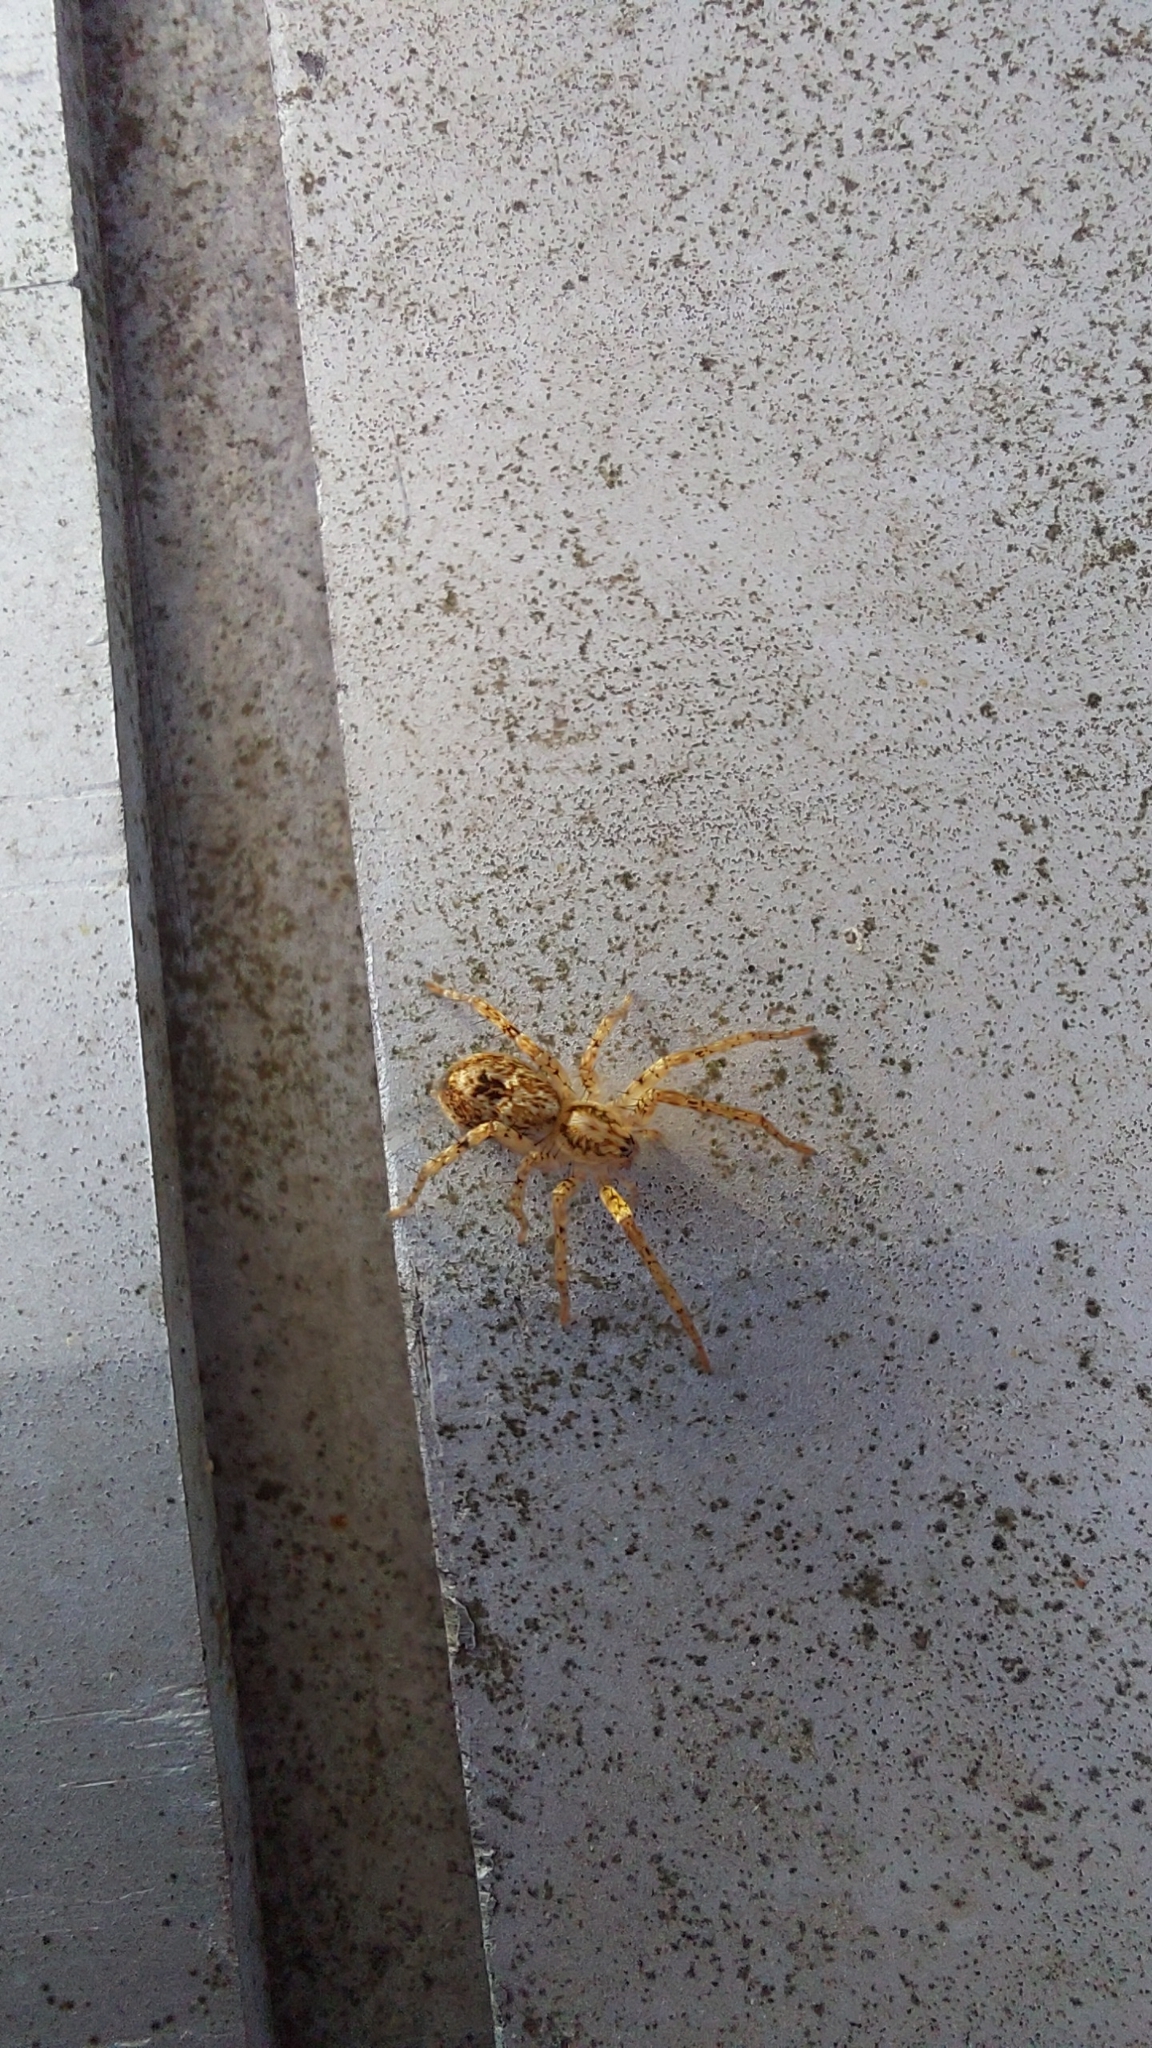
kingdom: Animalia
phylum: Arthropoda
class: Arachnida
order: Araneae
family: Anyphaenidae
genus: Anyphaena
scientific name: Anyphaena accentuata
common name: Buzzing spider
